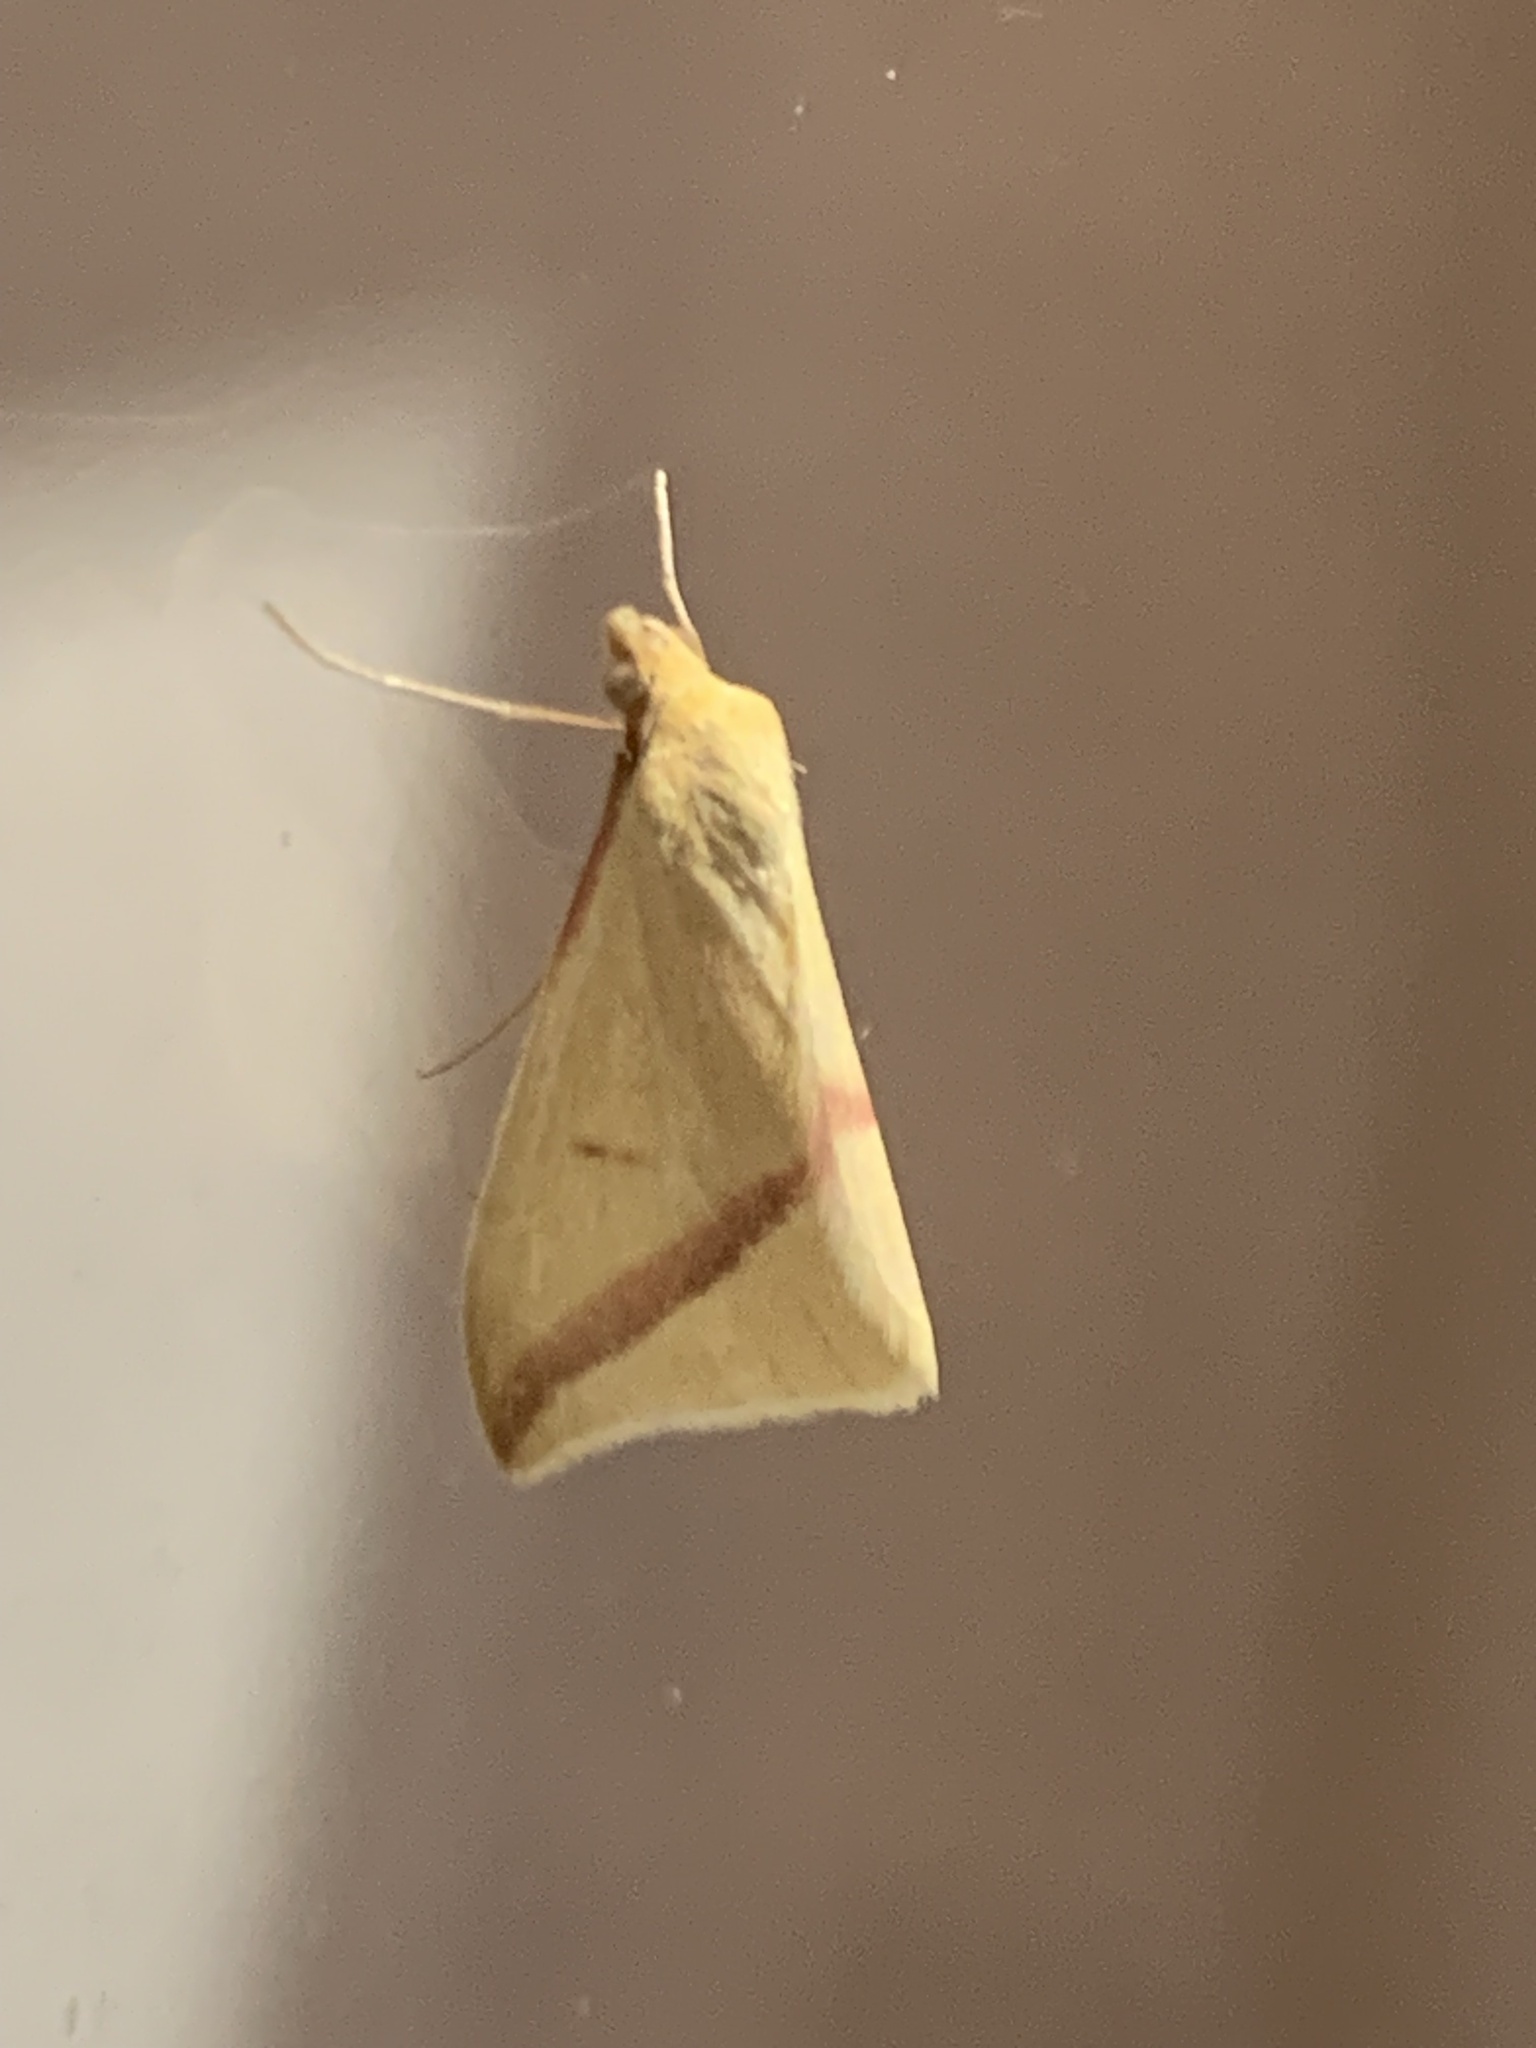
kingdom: Animalia
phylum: Arthropoda
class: Insecta
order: Lepidoptera
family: Geometridae
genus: Rhodometra
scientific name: Rhodometra sacraria
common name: Vestal
